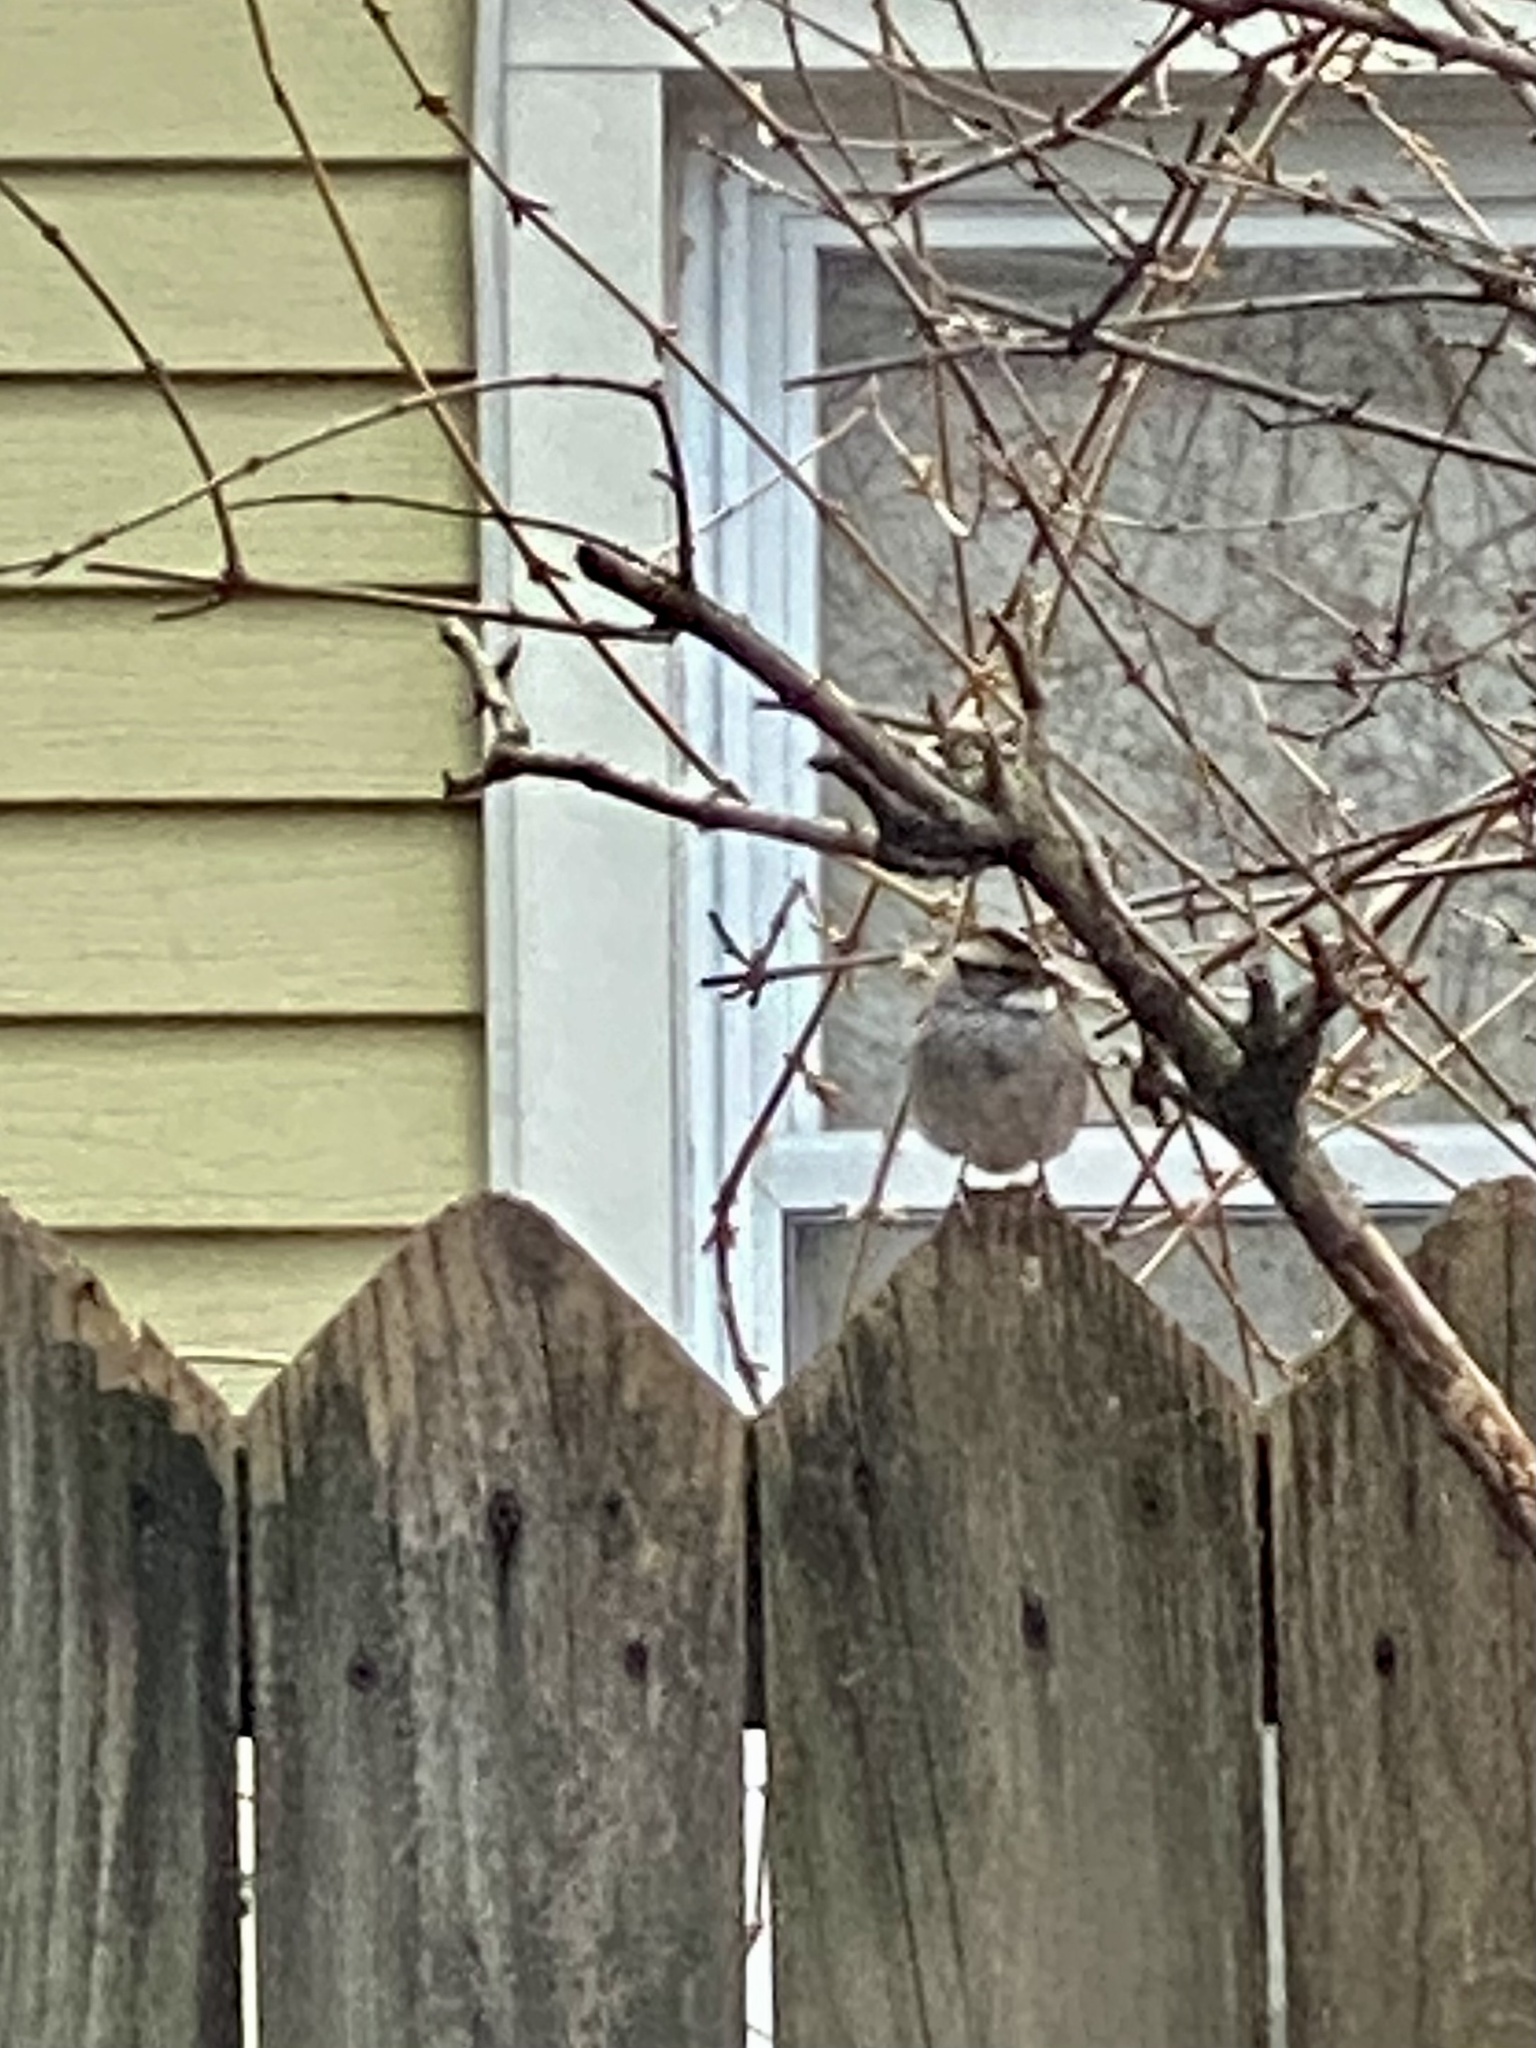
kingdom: Animalia
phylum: Chordata
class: Aves
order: Passeriformes
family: Passerellidae
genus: Zonotrichia
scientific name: Zonotrichia albicollis
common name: White-throated sparrow
